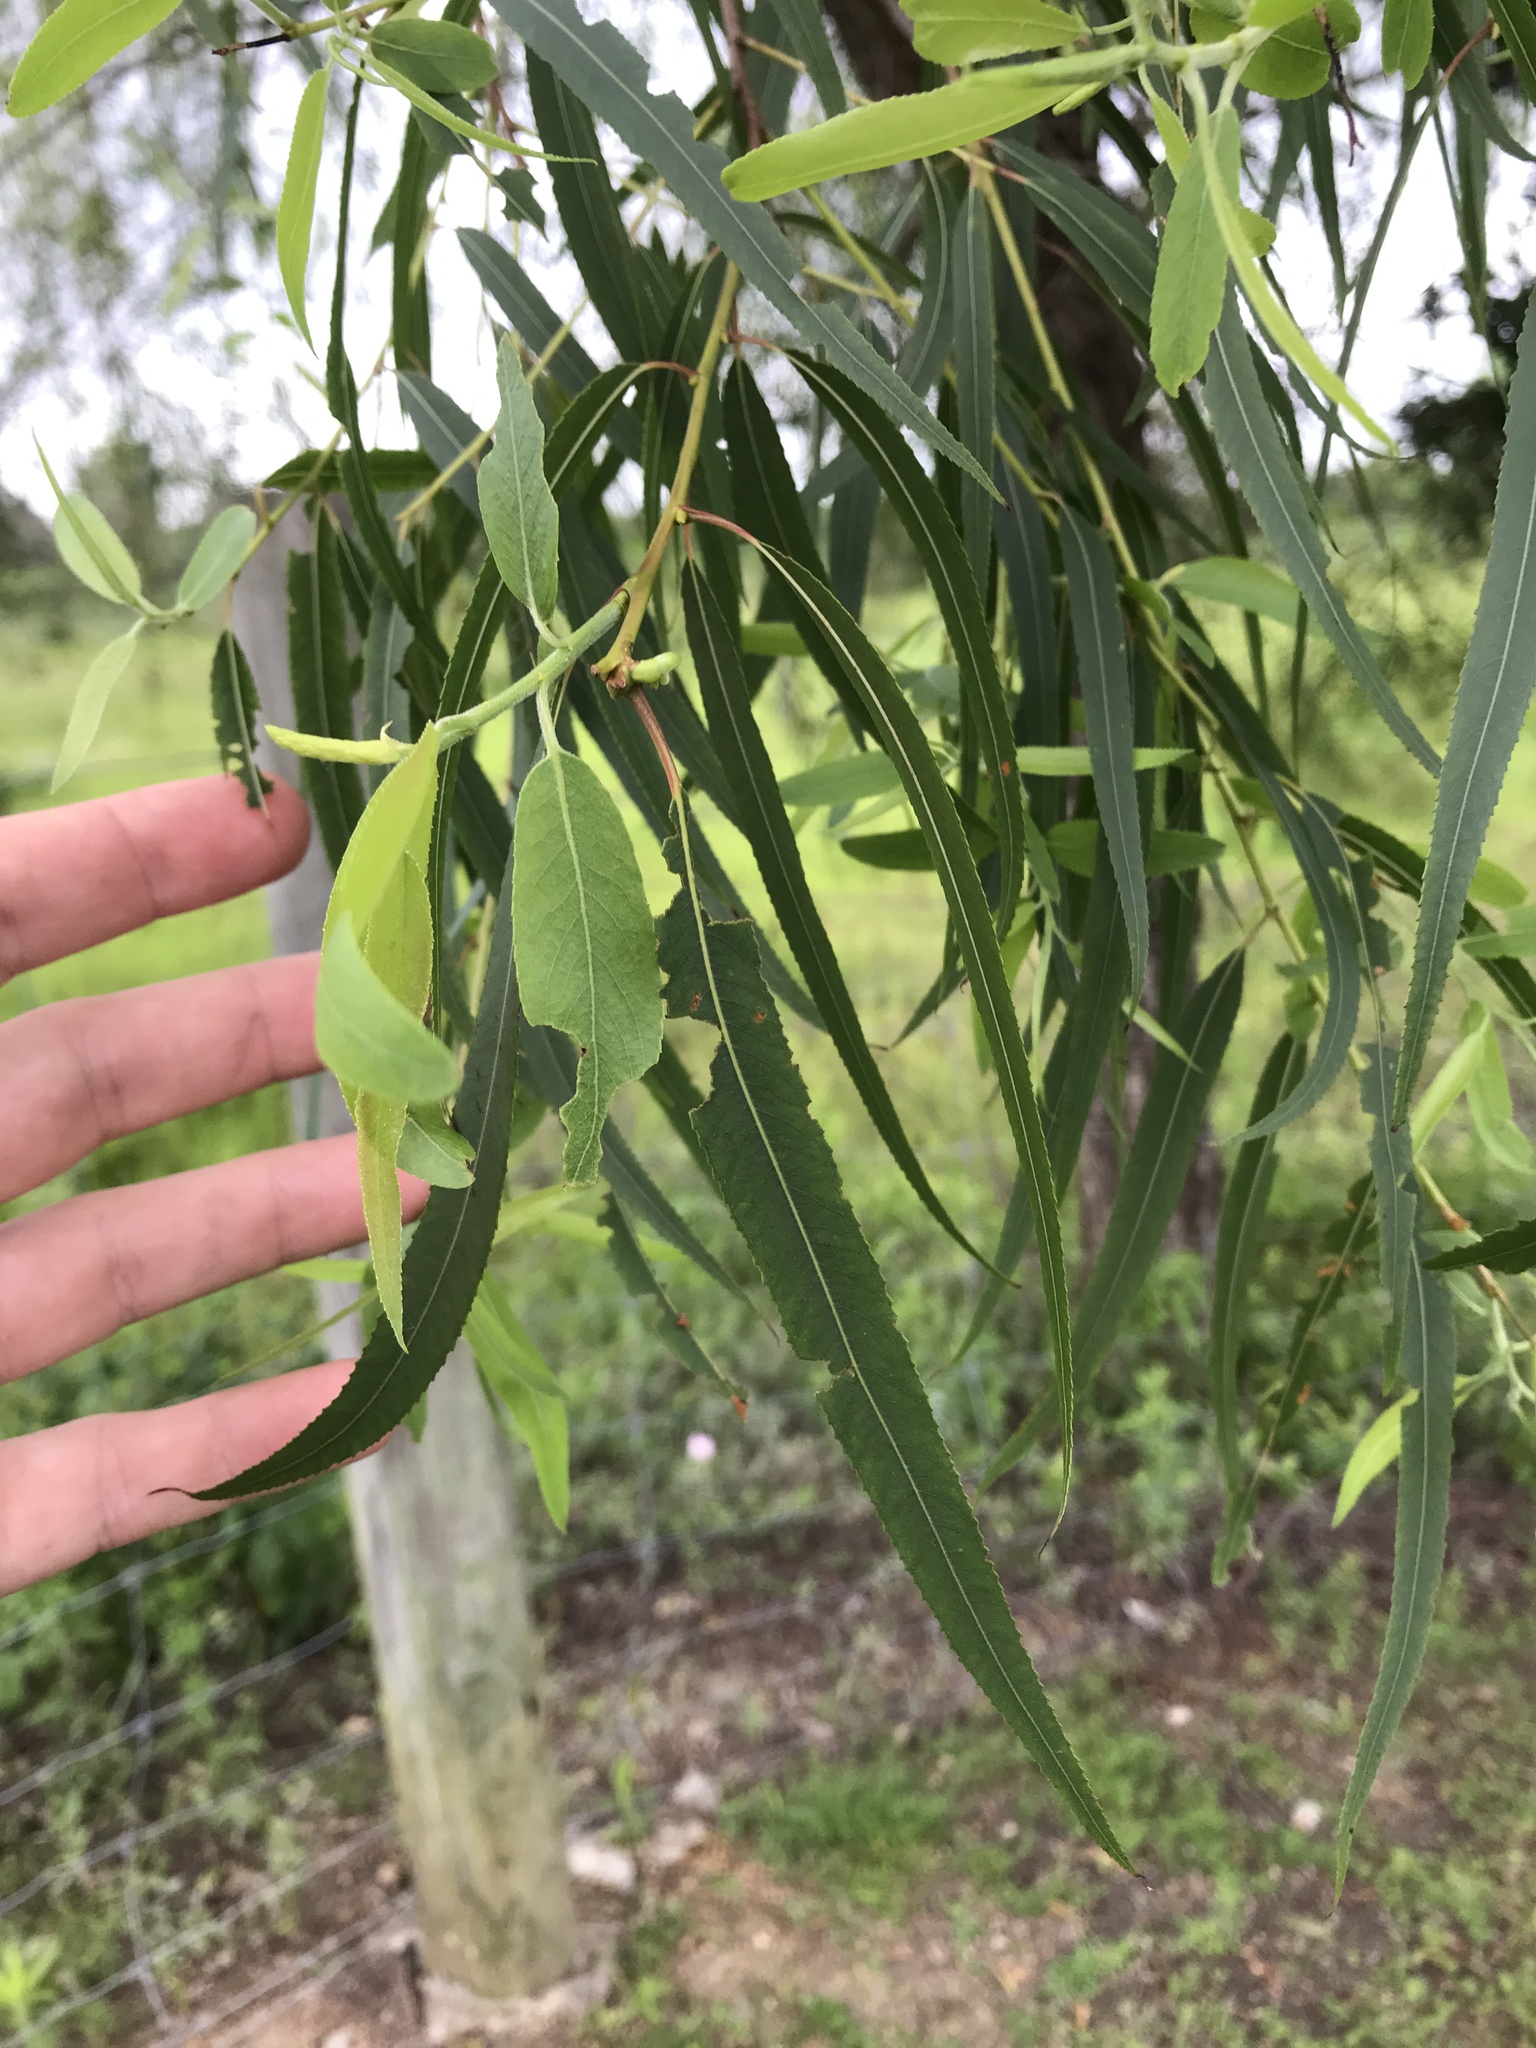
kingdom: Plantae
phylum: Tracheophyta
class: Magnoliopsida
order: Malpighiales
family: Salicaceae
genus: Salix
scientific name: Salix nigra
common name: Black willow
